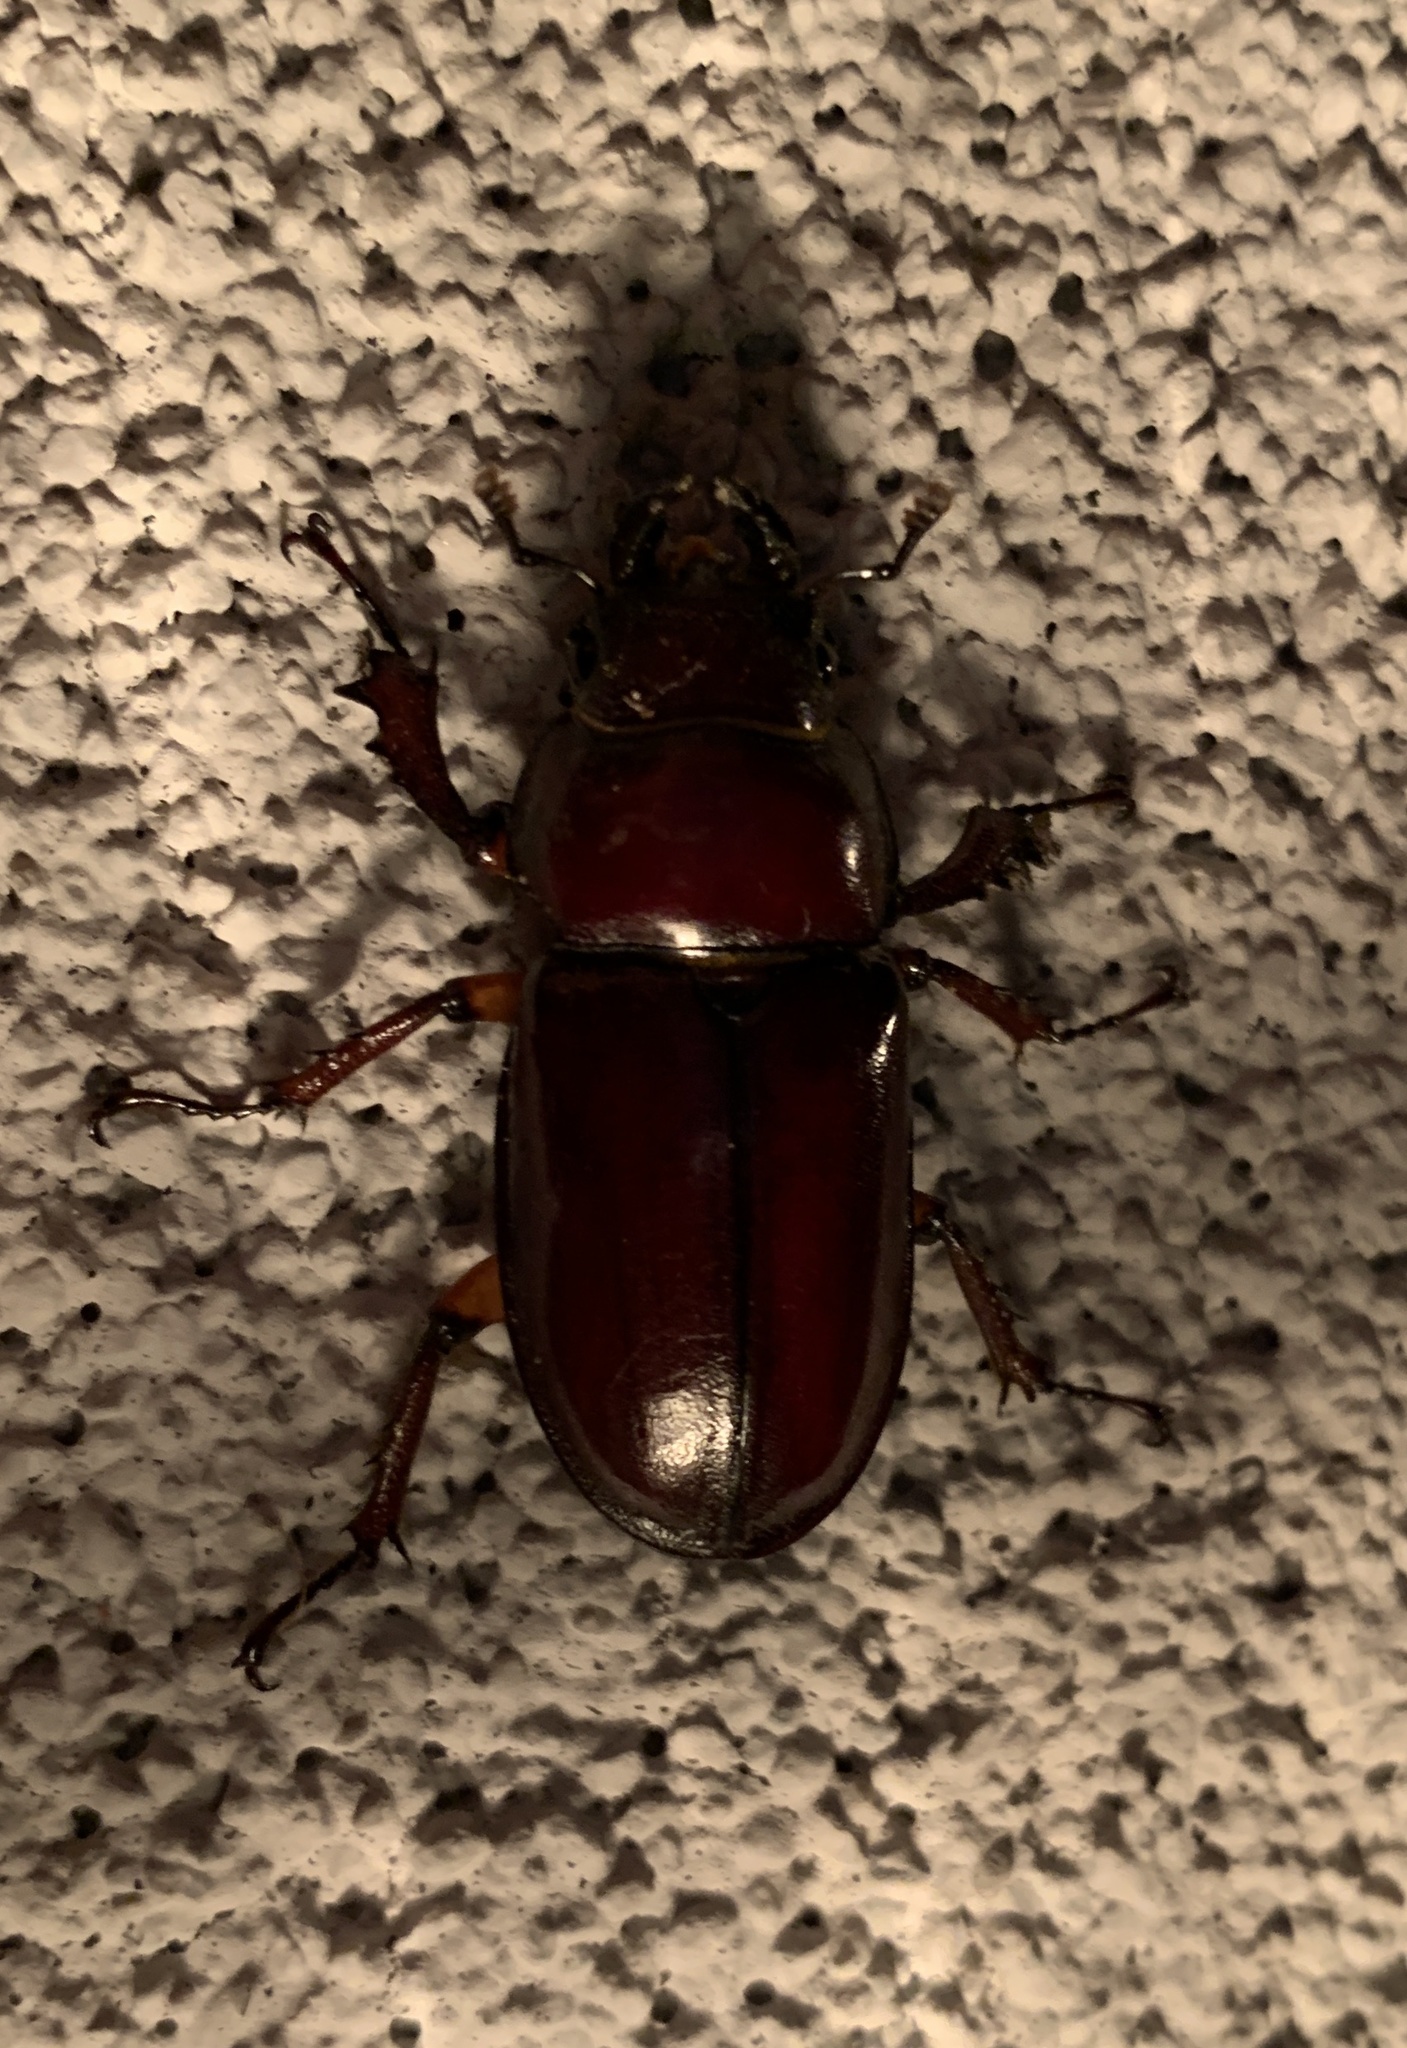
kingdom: Animalia
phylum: Arthropoda
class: Insecta
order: Coleoptera
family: Lucanidae
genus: Lucanus
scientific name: Lucanus capreolus
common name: Stag beetle
